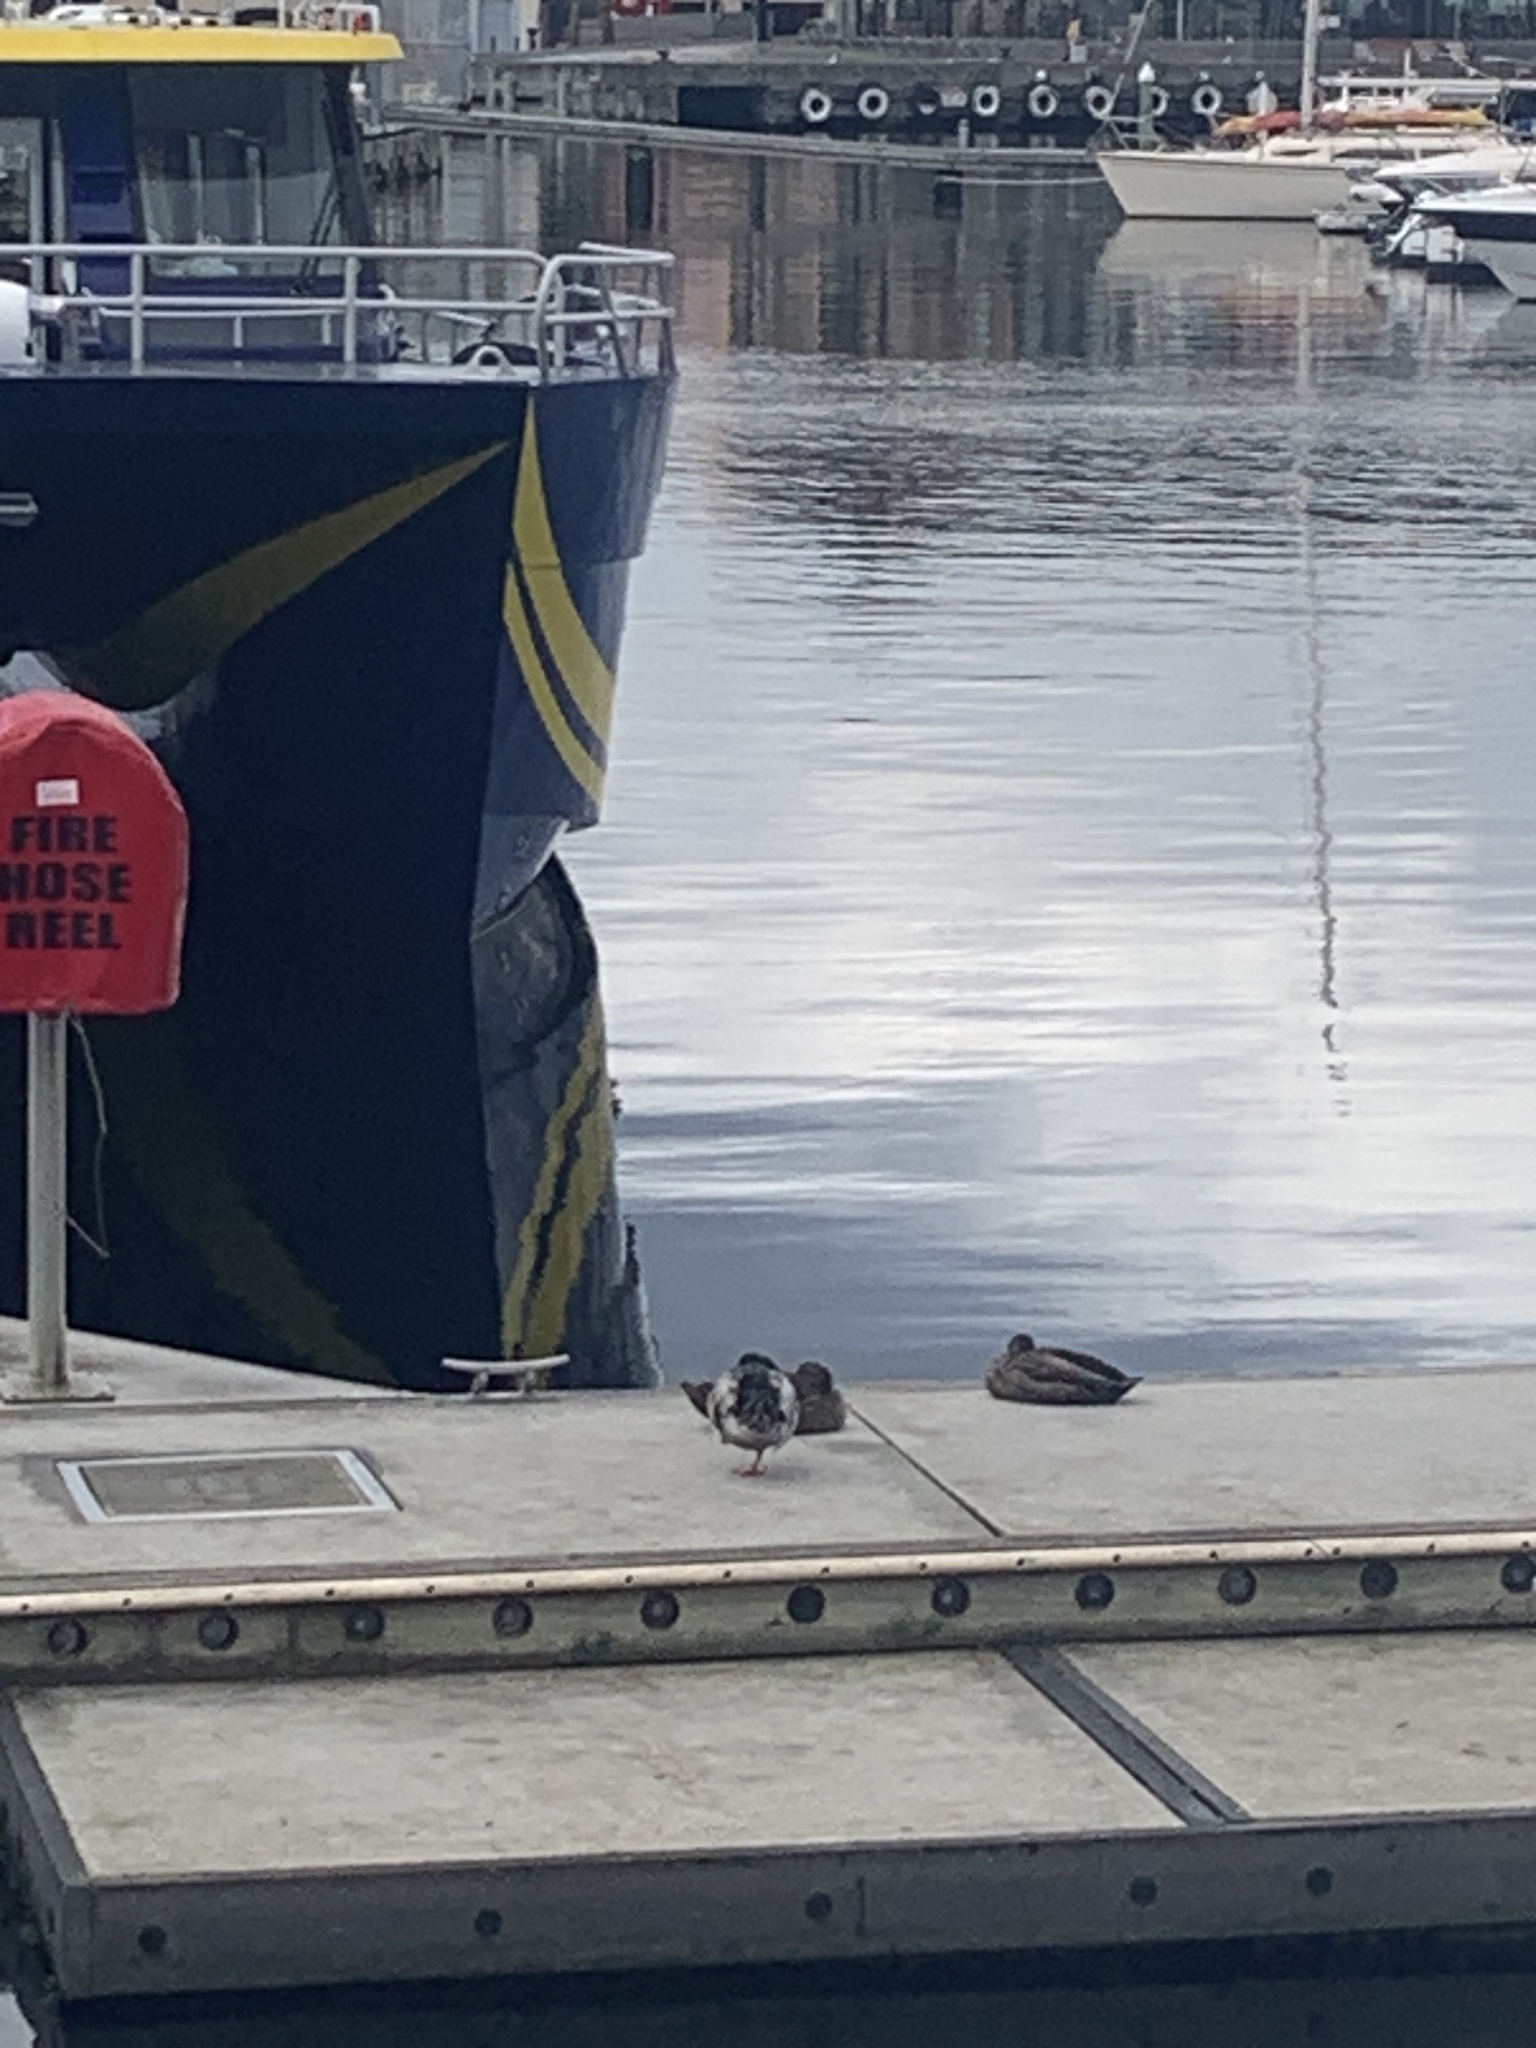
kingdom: Animalia
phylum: Chordata
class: Aves
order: Anseriformes
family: Anatidae
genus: Anas
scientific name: Anas platyrhynchos
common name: Mallard
